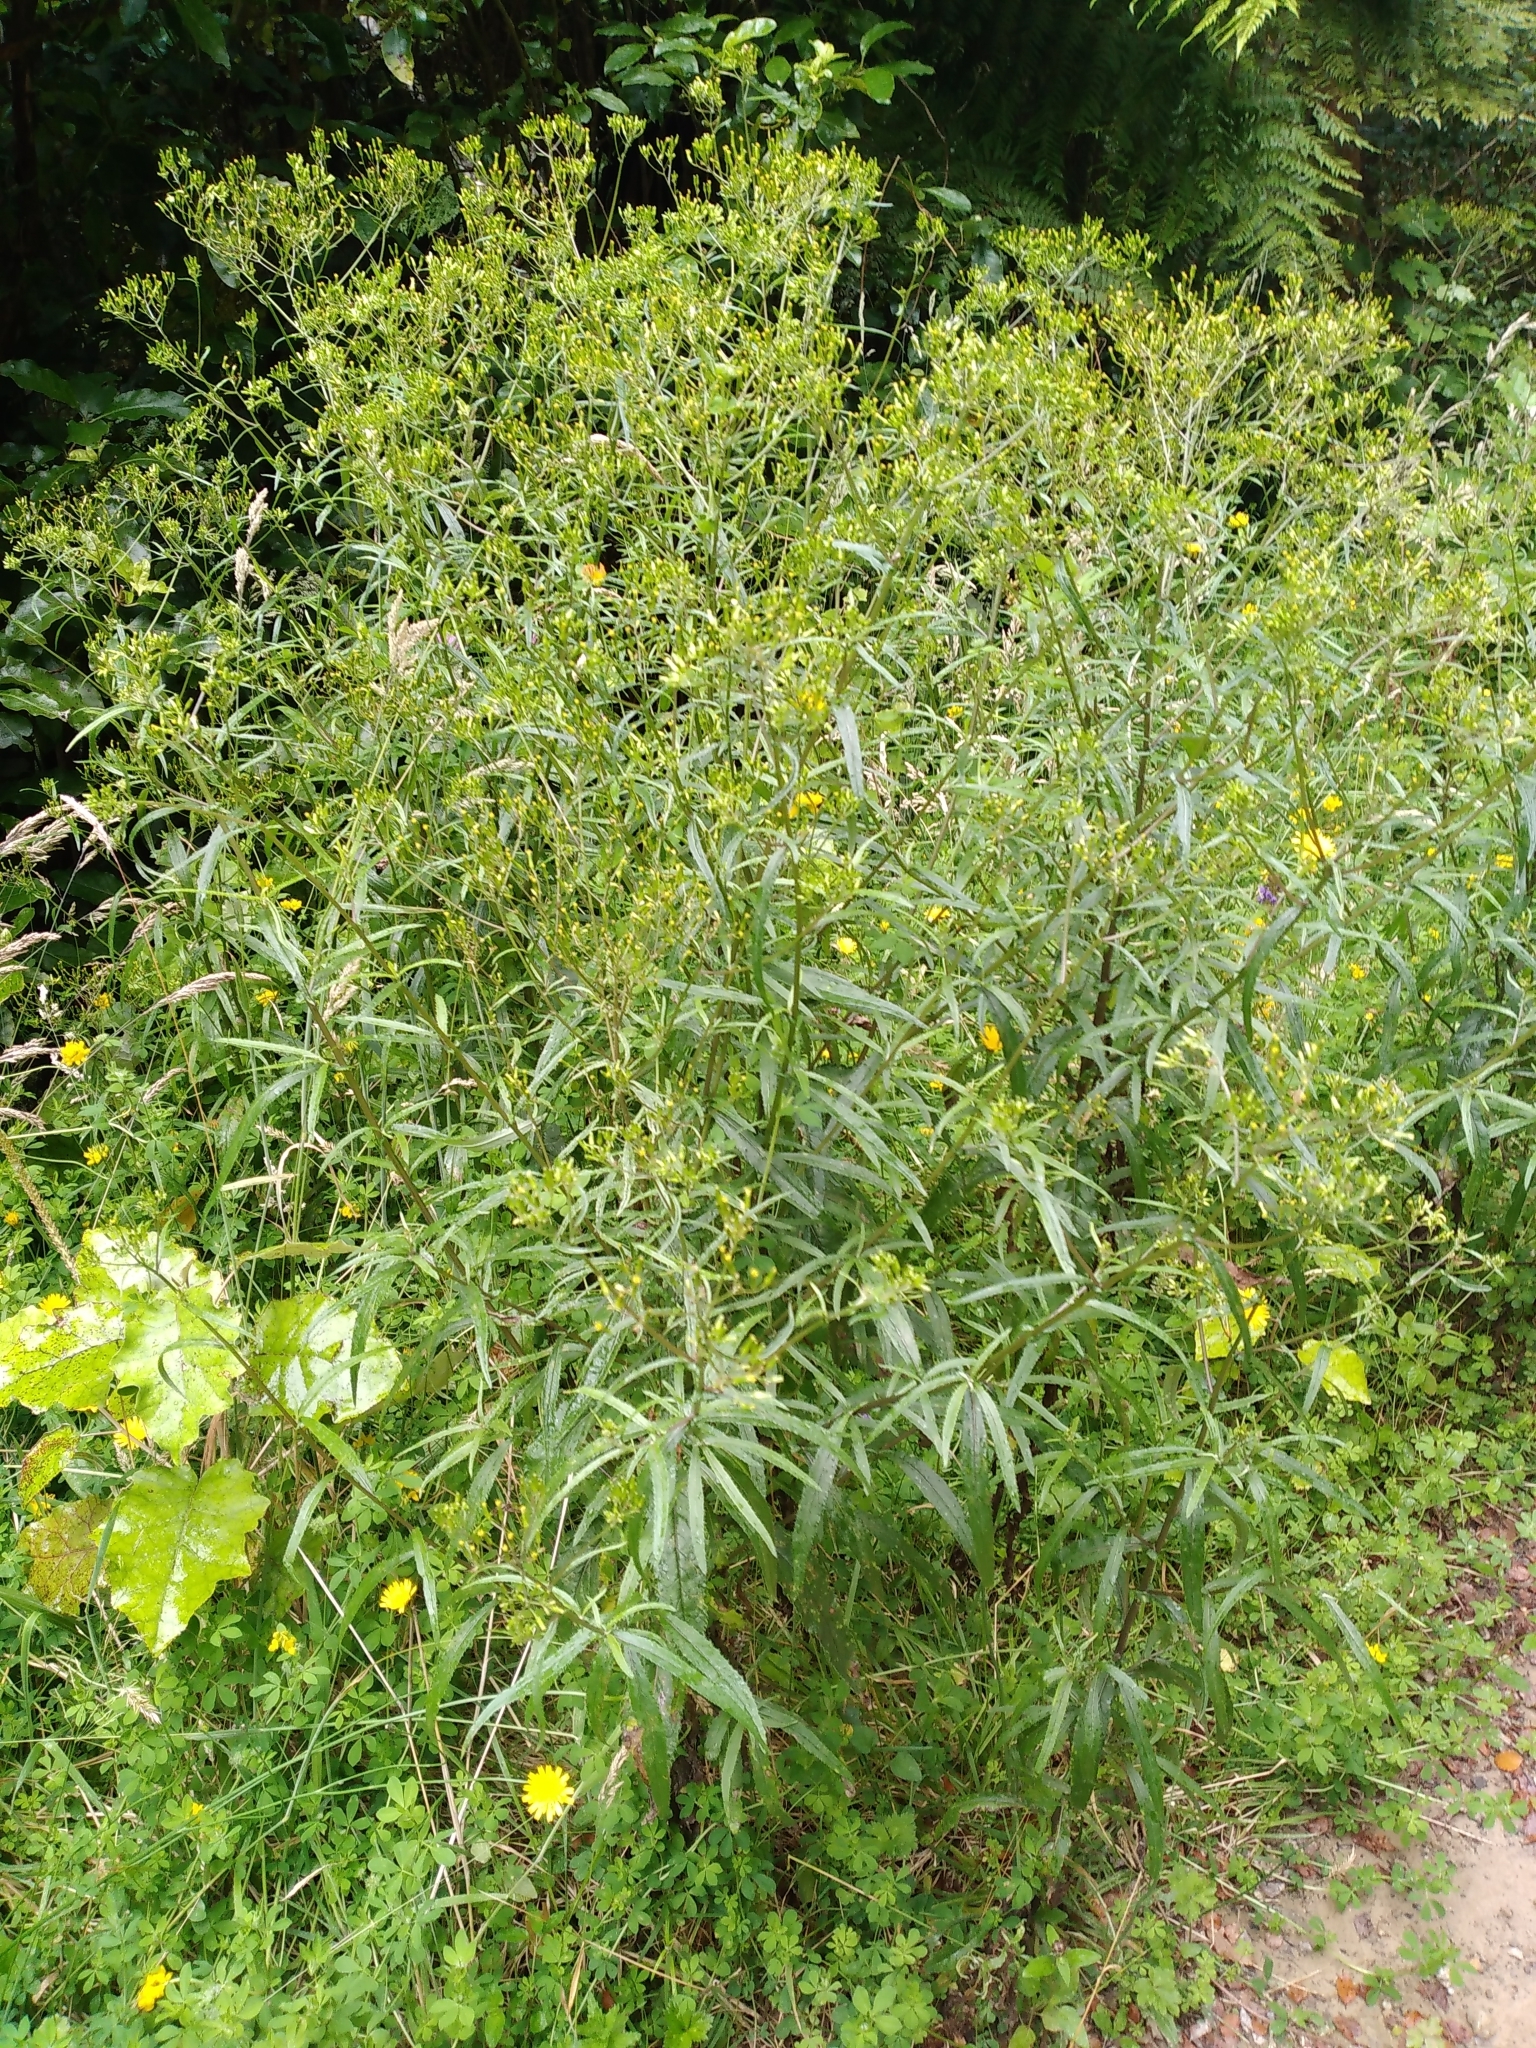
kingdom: Plantae
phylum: Tracheophyta
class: Magnoliopsida
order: Asterales
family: Asteraceae
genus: Senecio
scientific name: Senecio minimus
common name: Toothed fireweed
